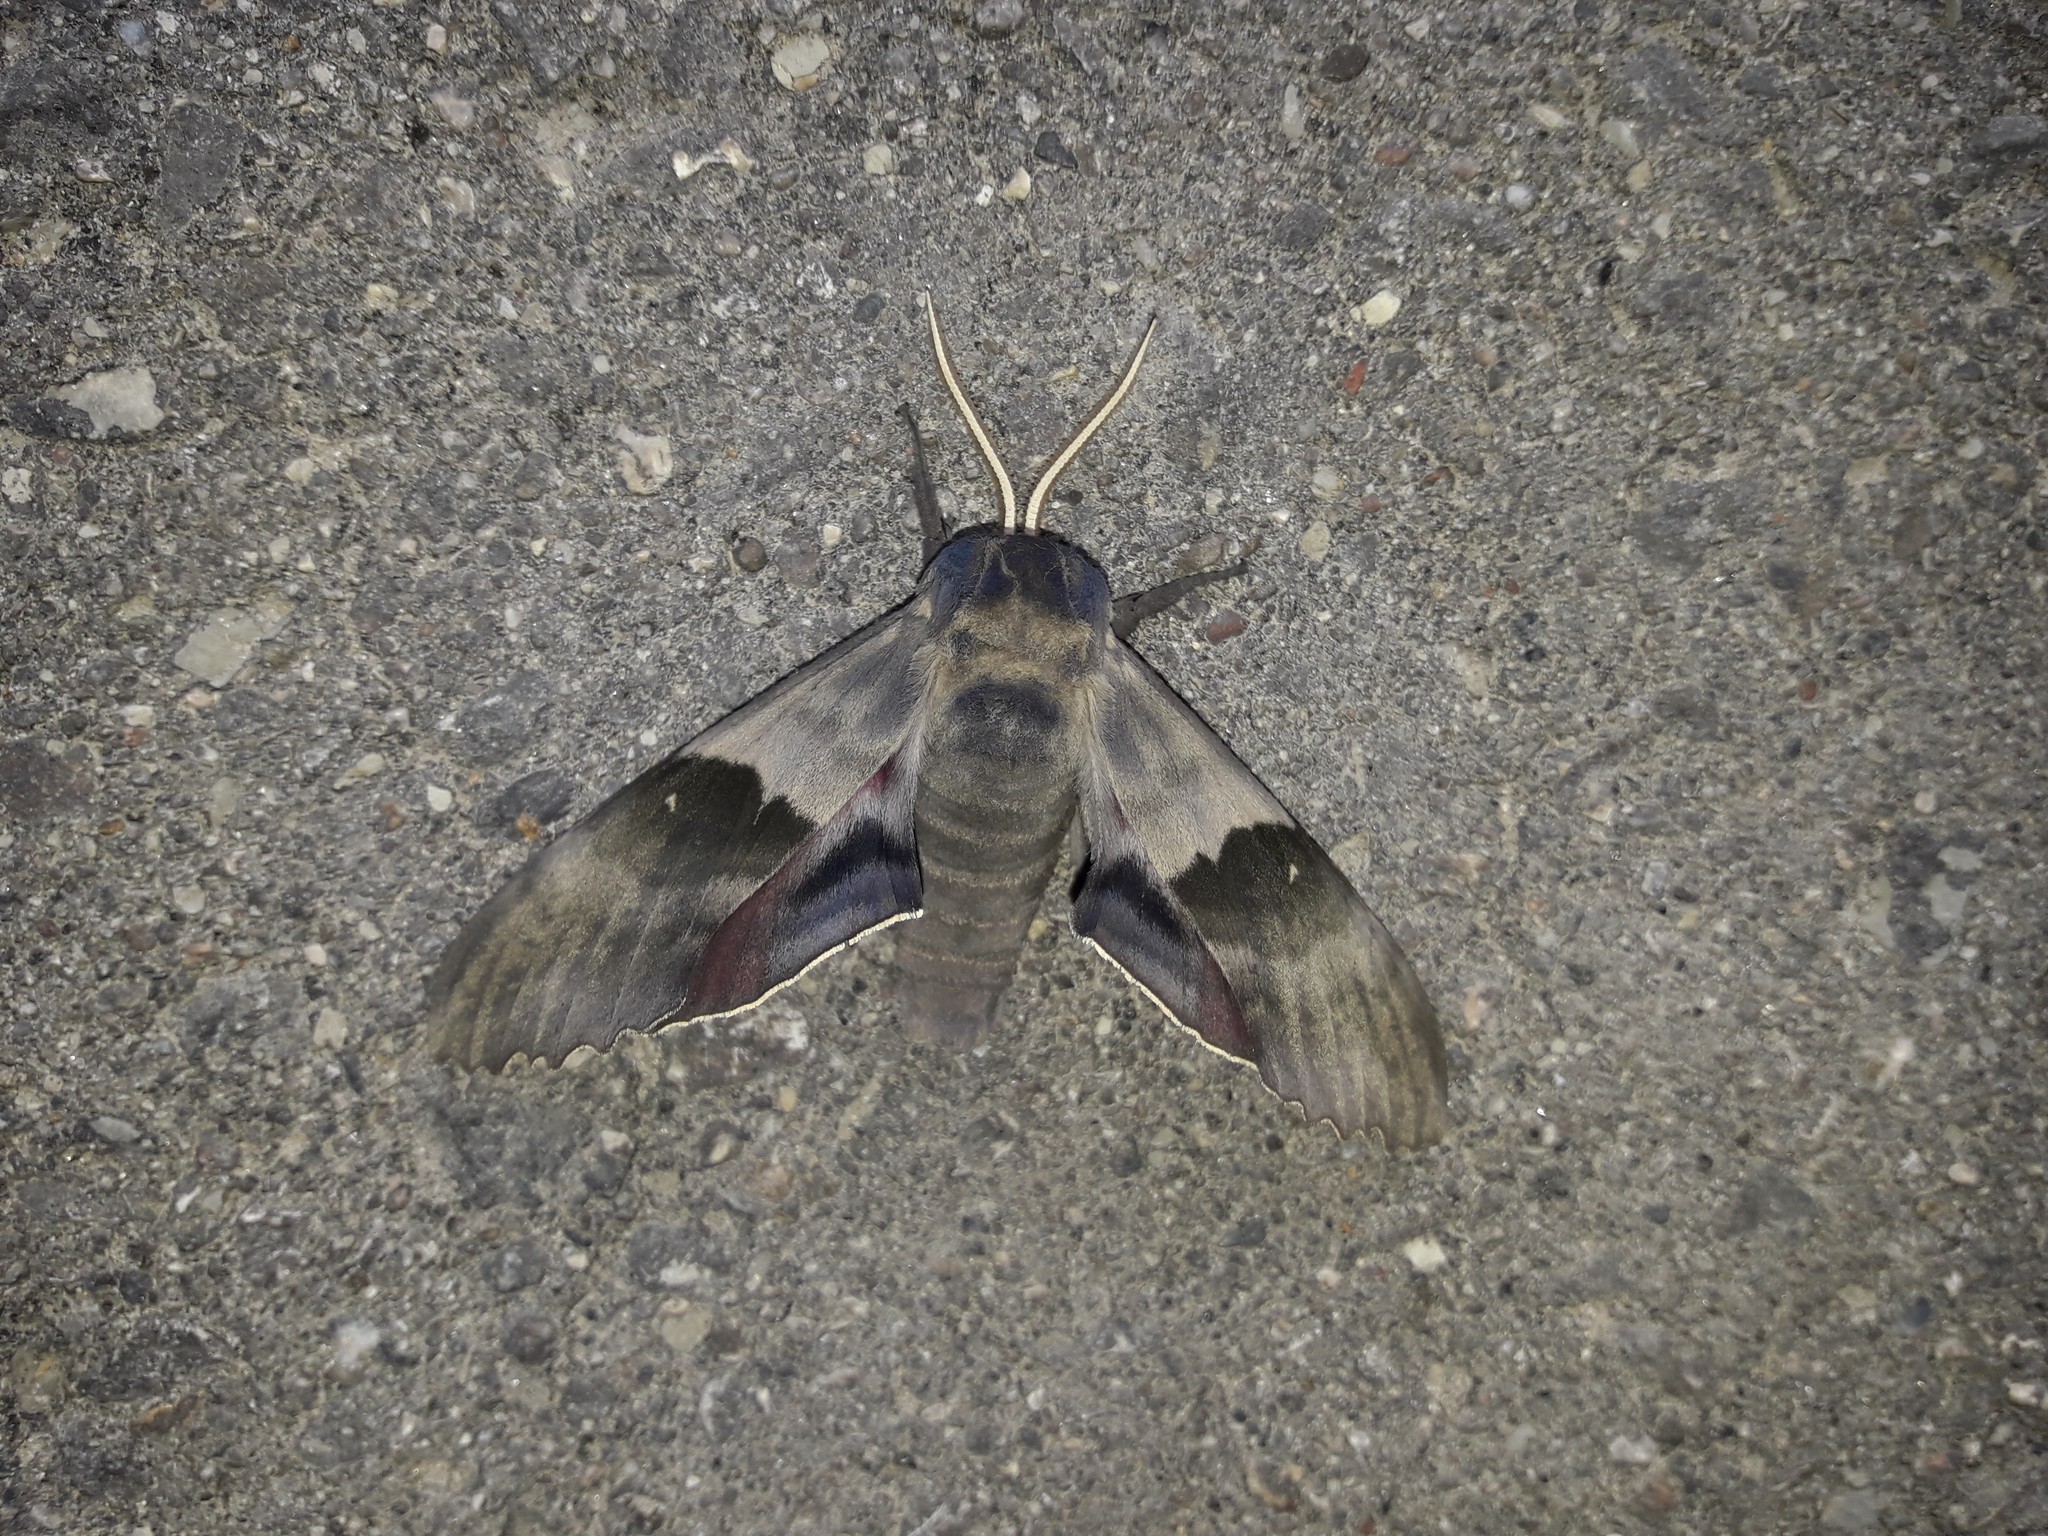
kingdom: Animalia
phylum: Arthropoda
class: Insecta
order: Lepidoptera
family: Sphingidae
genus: Pachysphinx
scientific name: Pachysphinx modesta
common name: Big poplar sphinx
